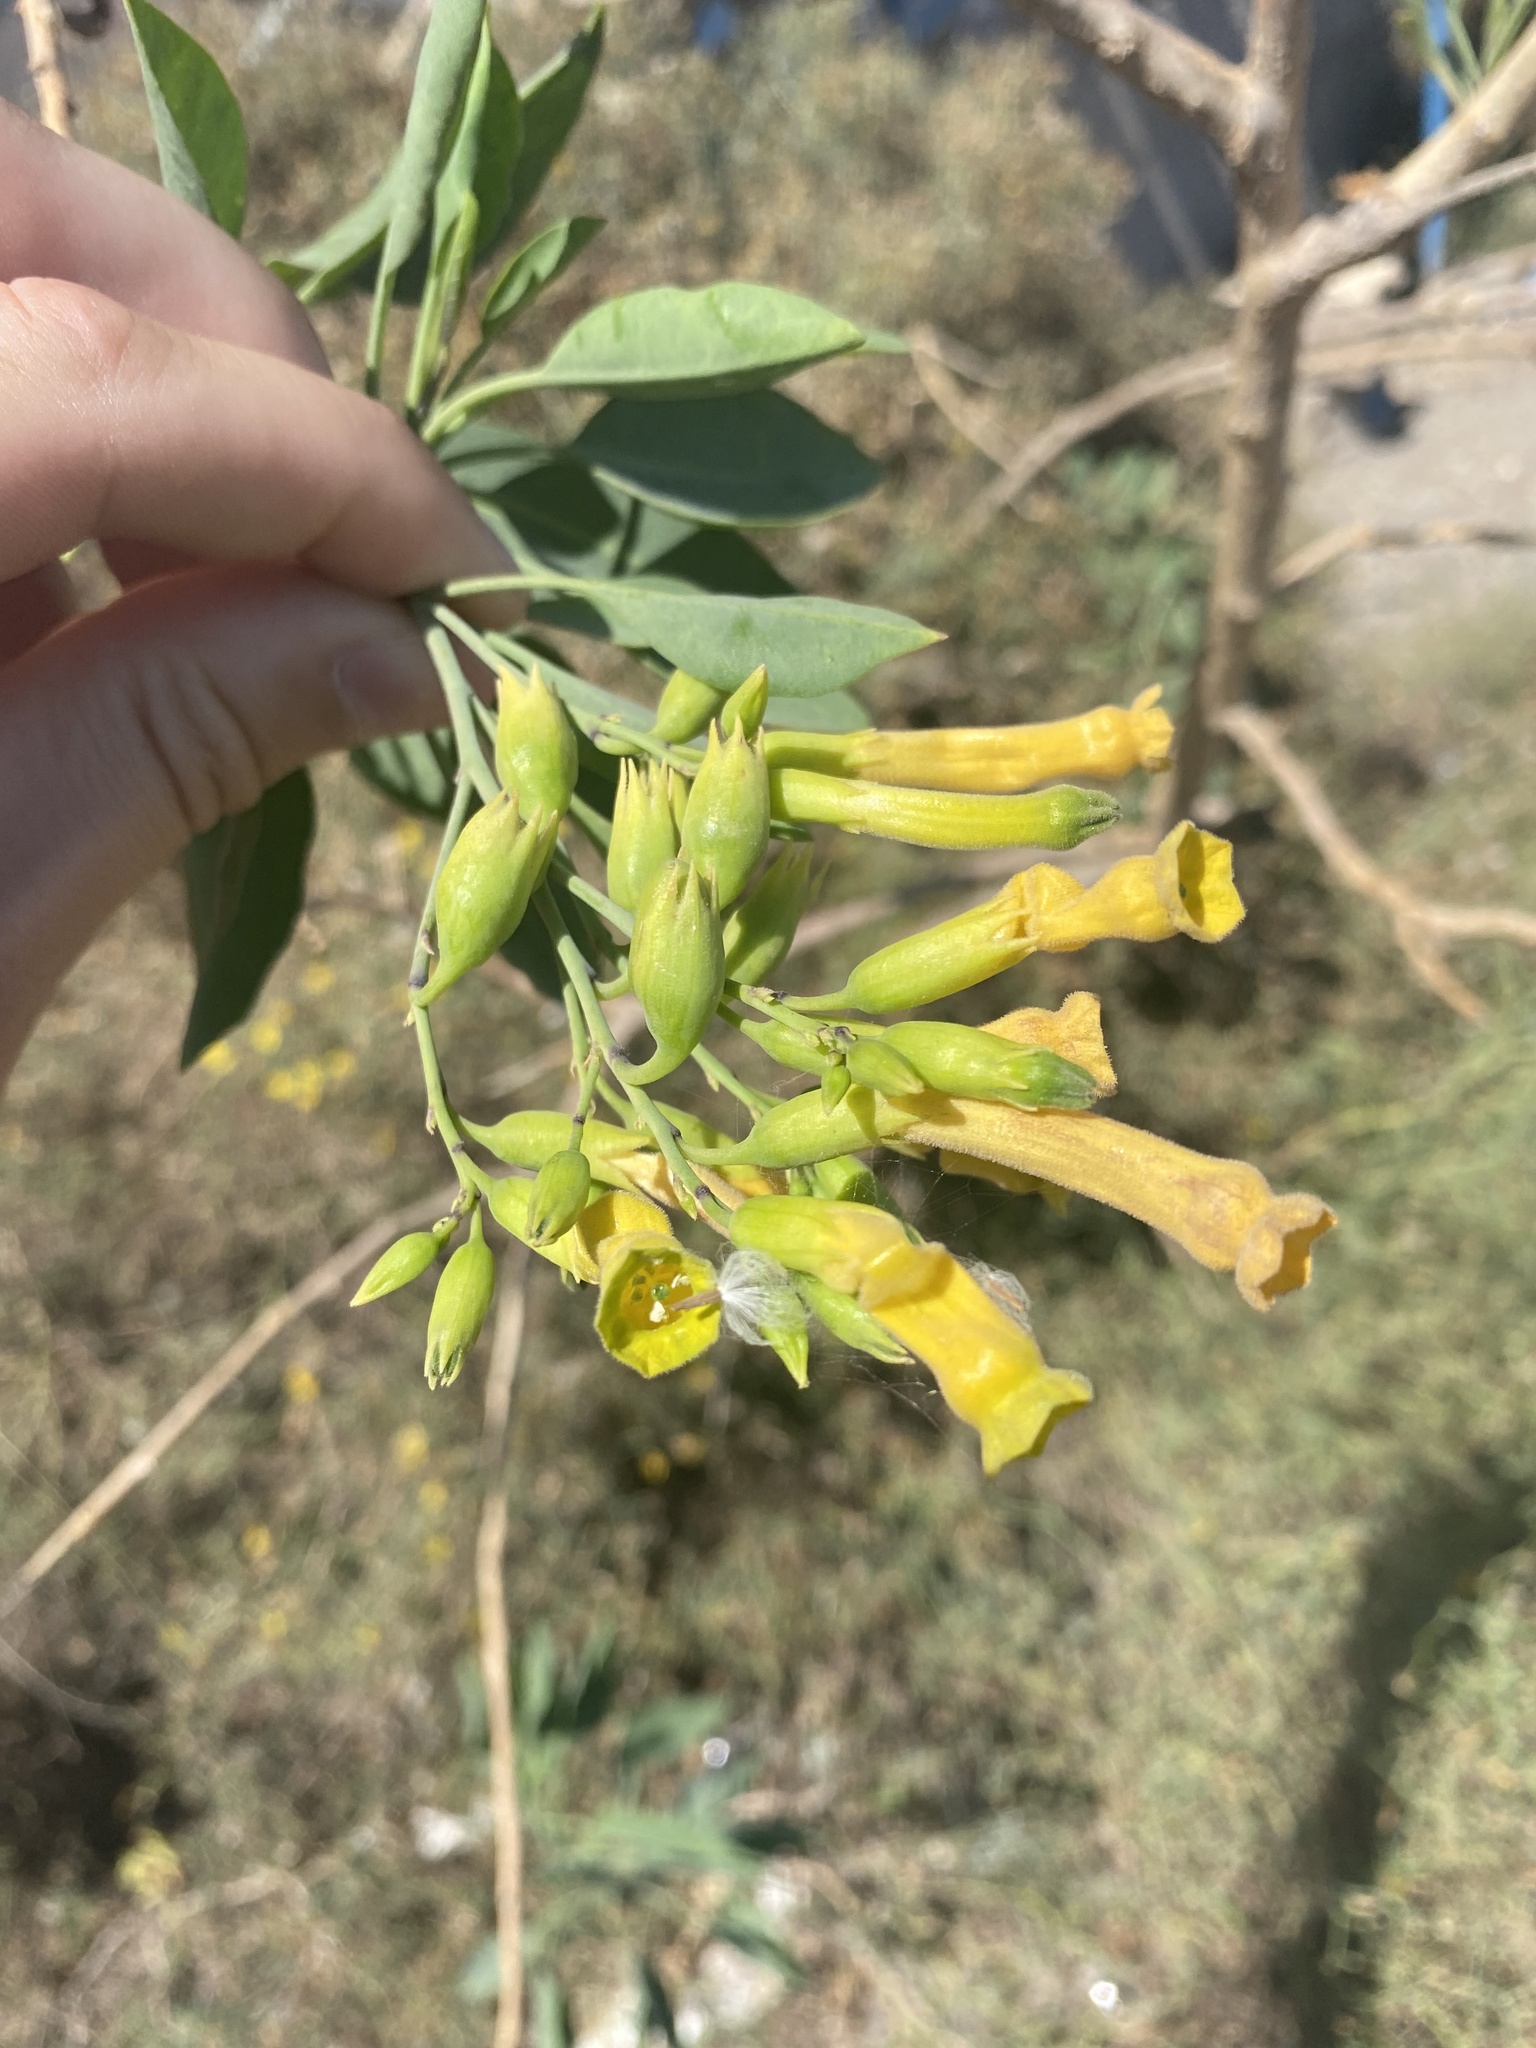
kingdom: Plantae
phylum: Tracheophyta
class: Magnoliopsida
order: Solanales
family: Solanaceae
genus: Nicotiana
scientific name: Nicotiana glauca
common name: Tree tobacco
